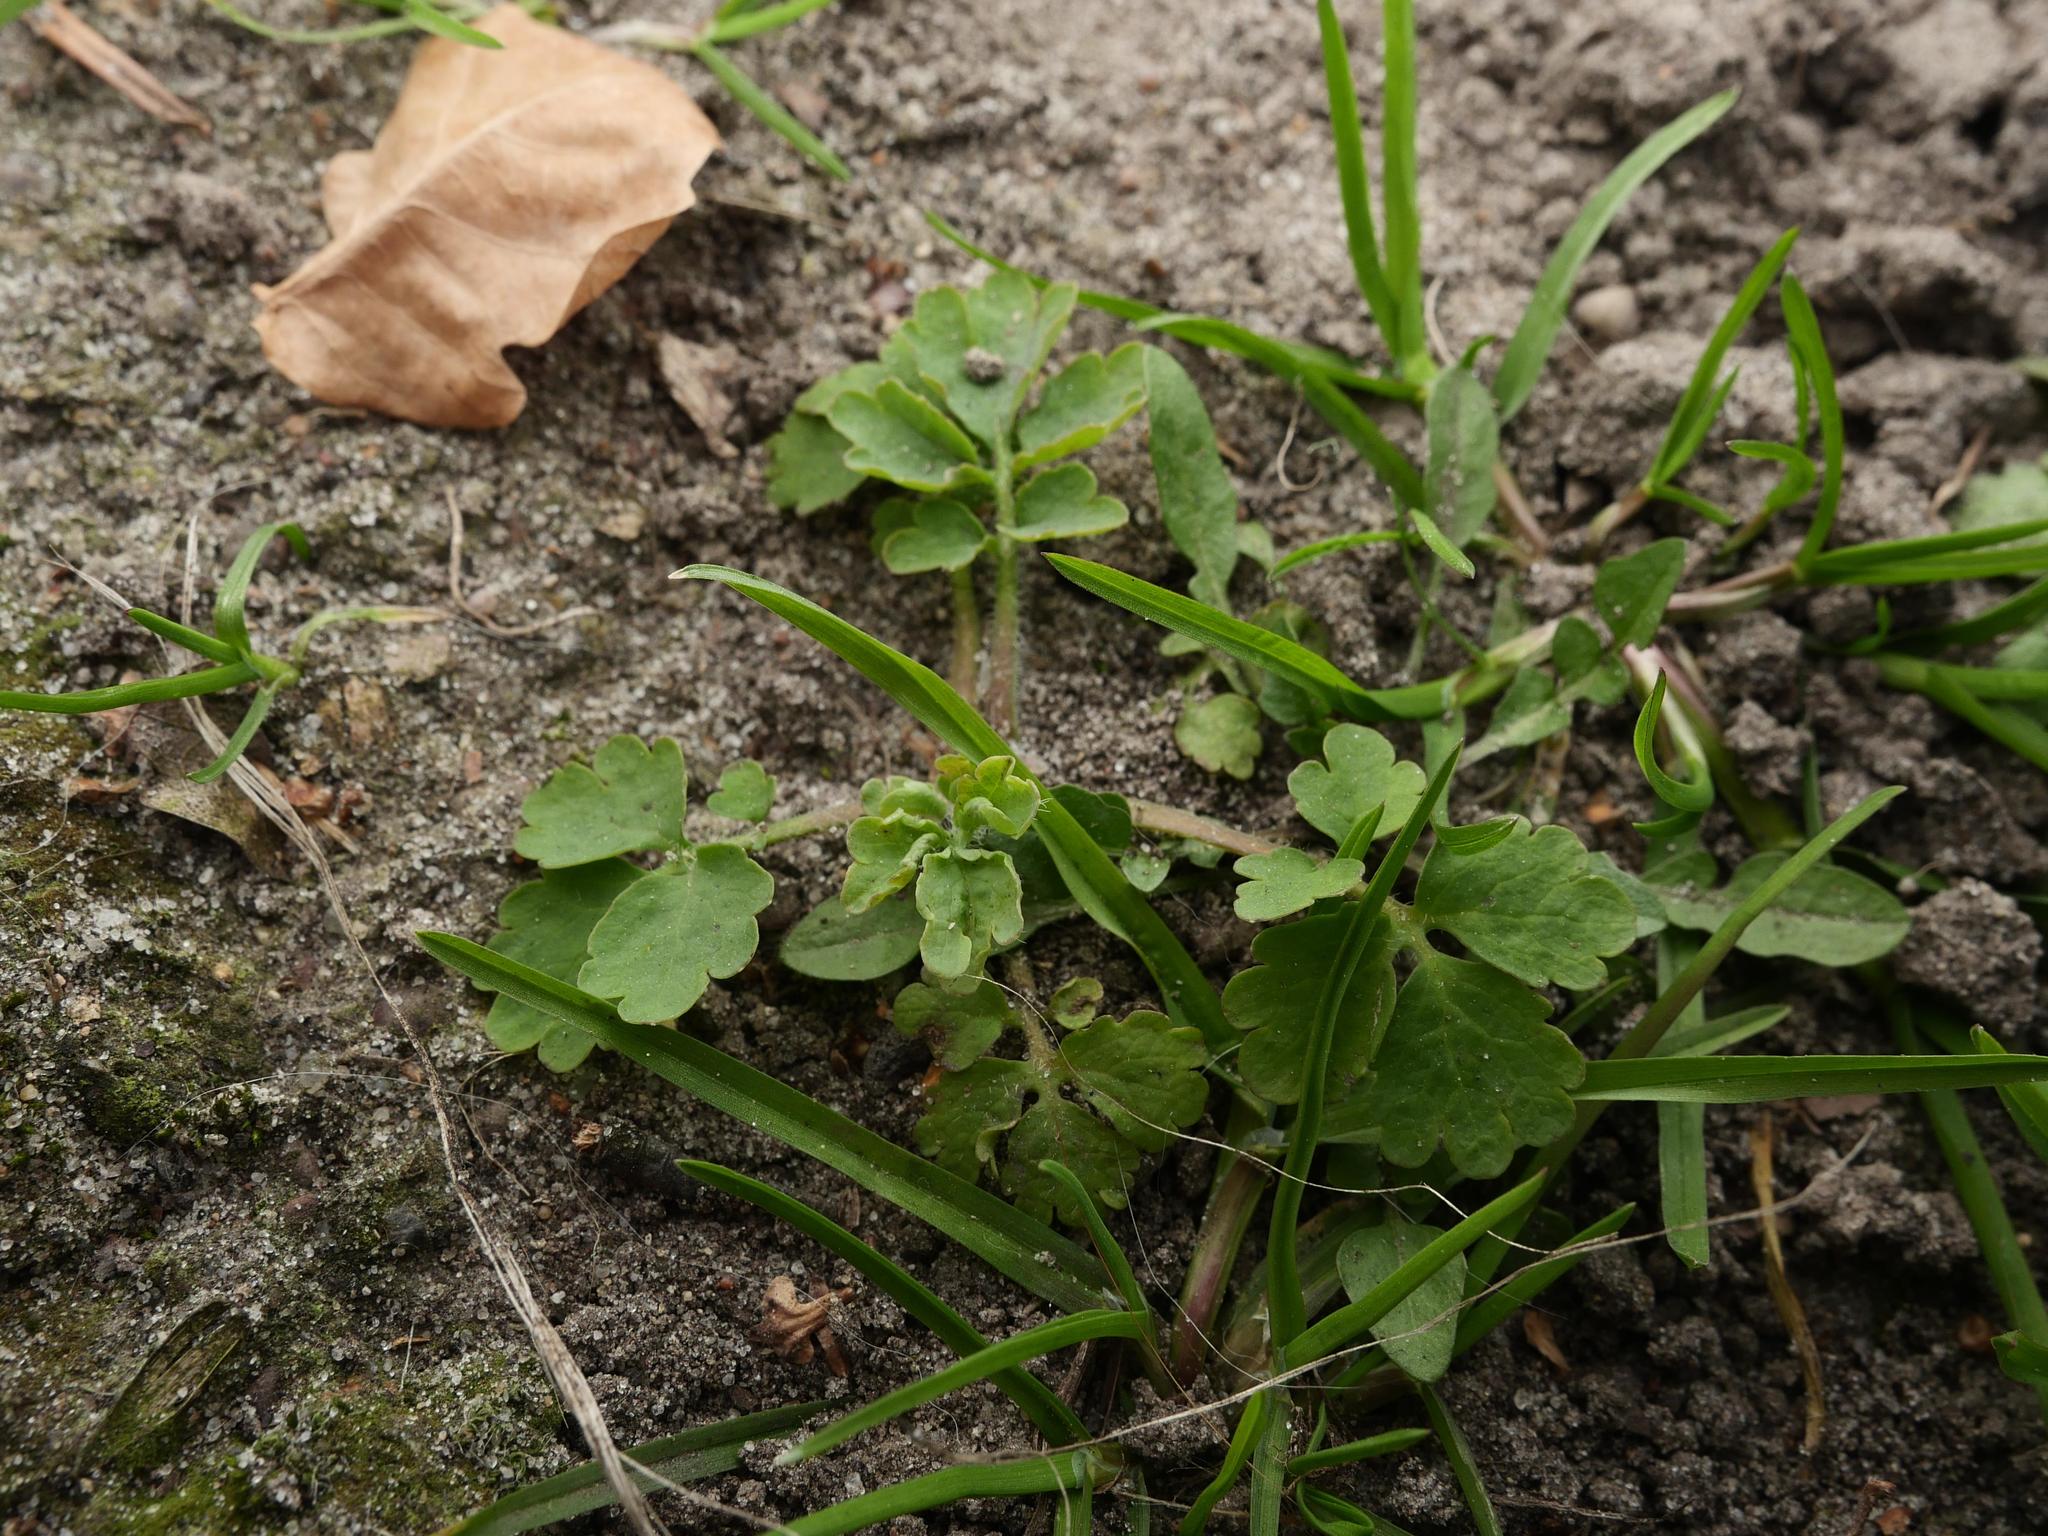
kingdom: Plantae
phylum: Tracheophyta
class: Magnoliopsida
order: Ranunculales
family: Papaveraceae
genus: Chelidonium
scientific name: Chelidonium majus
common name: Greater celandine
